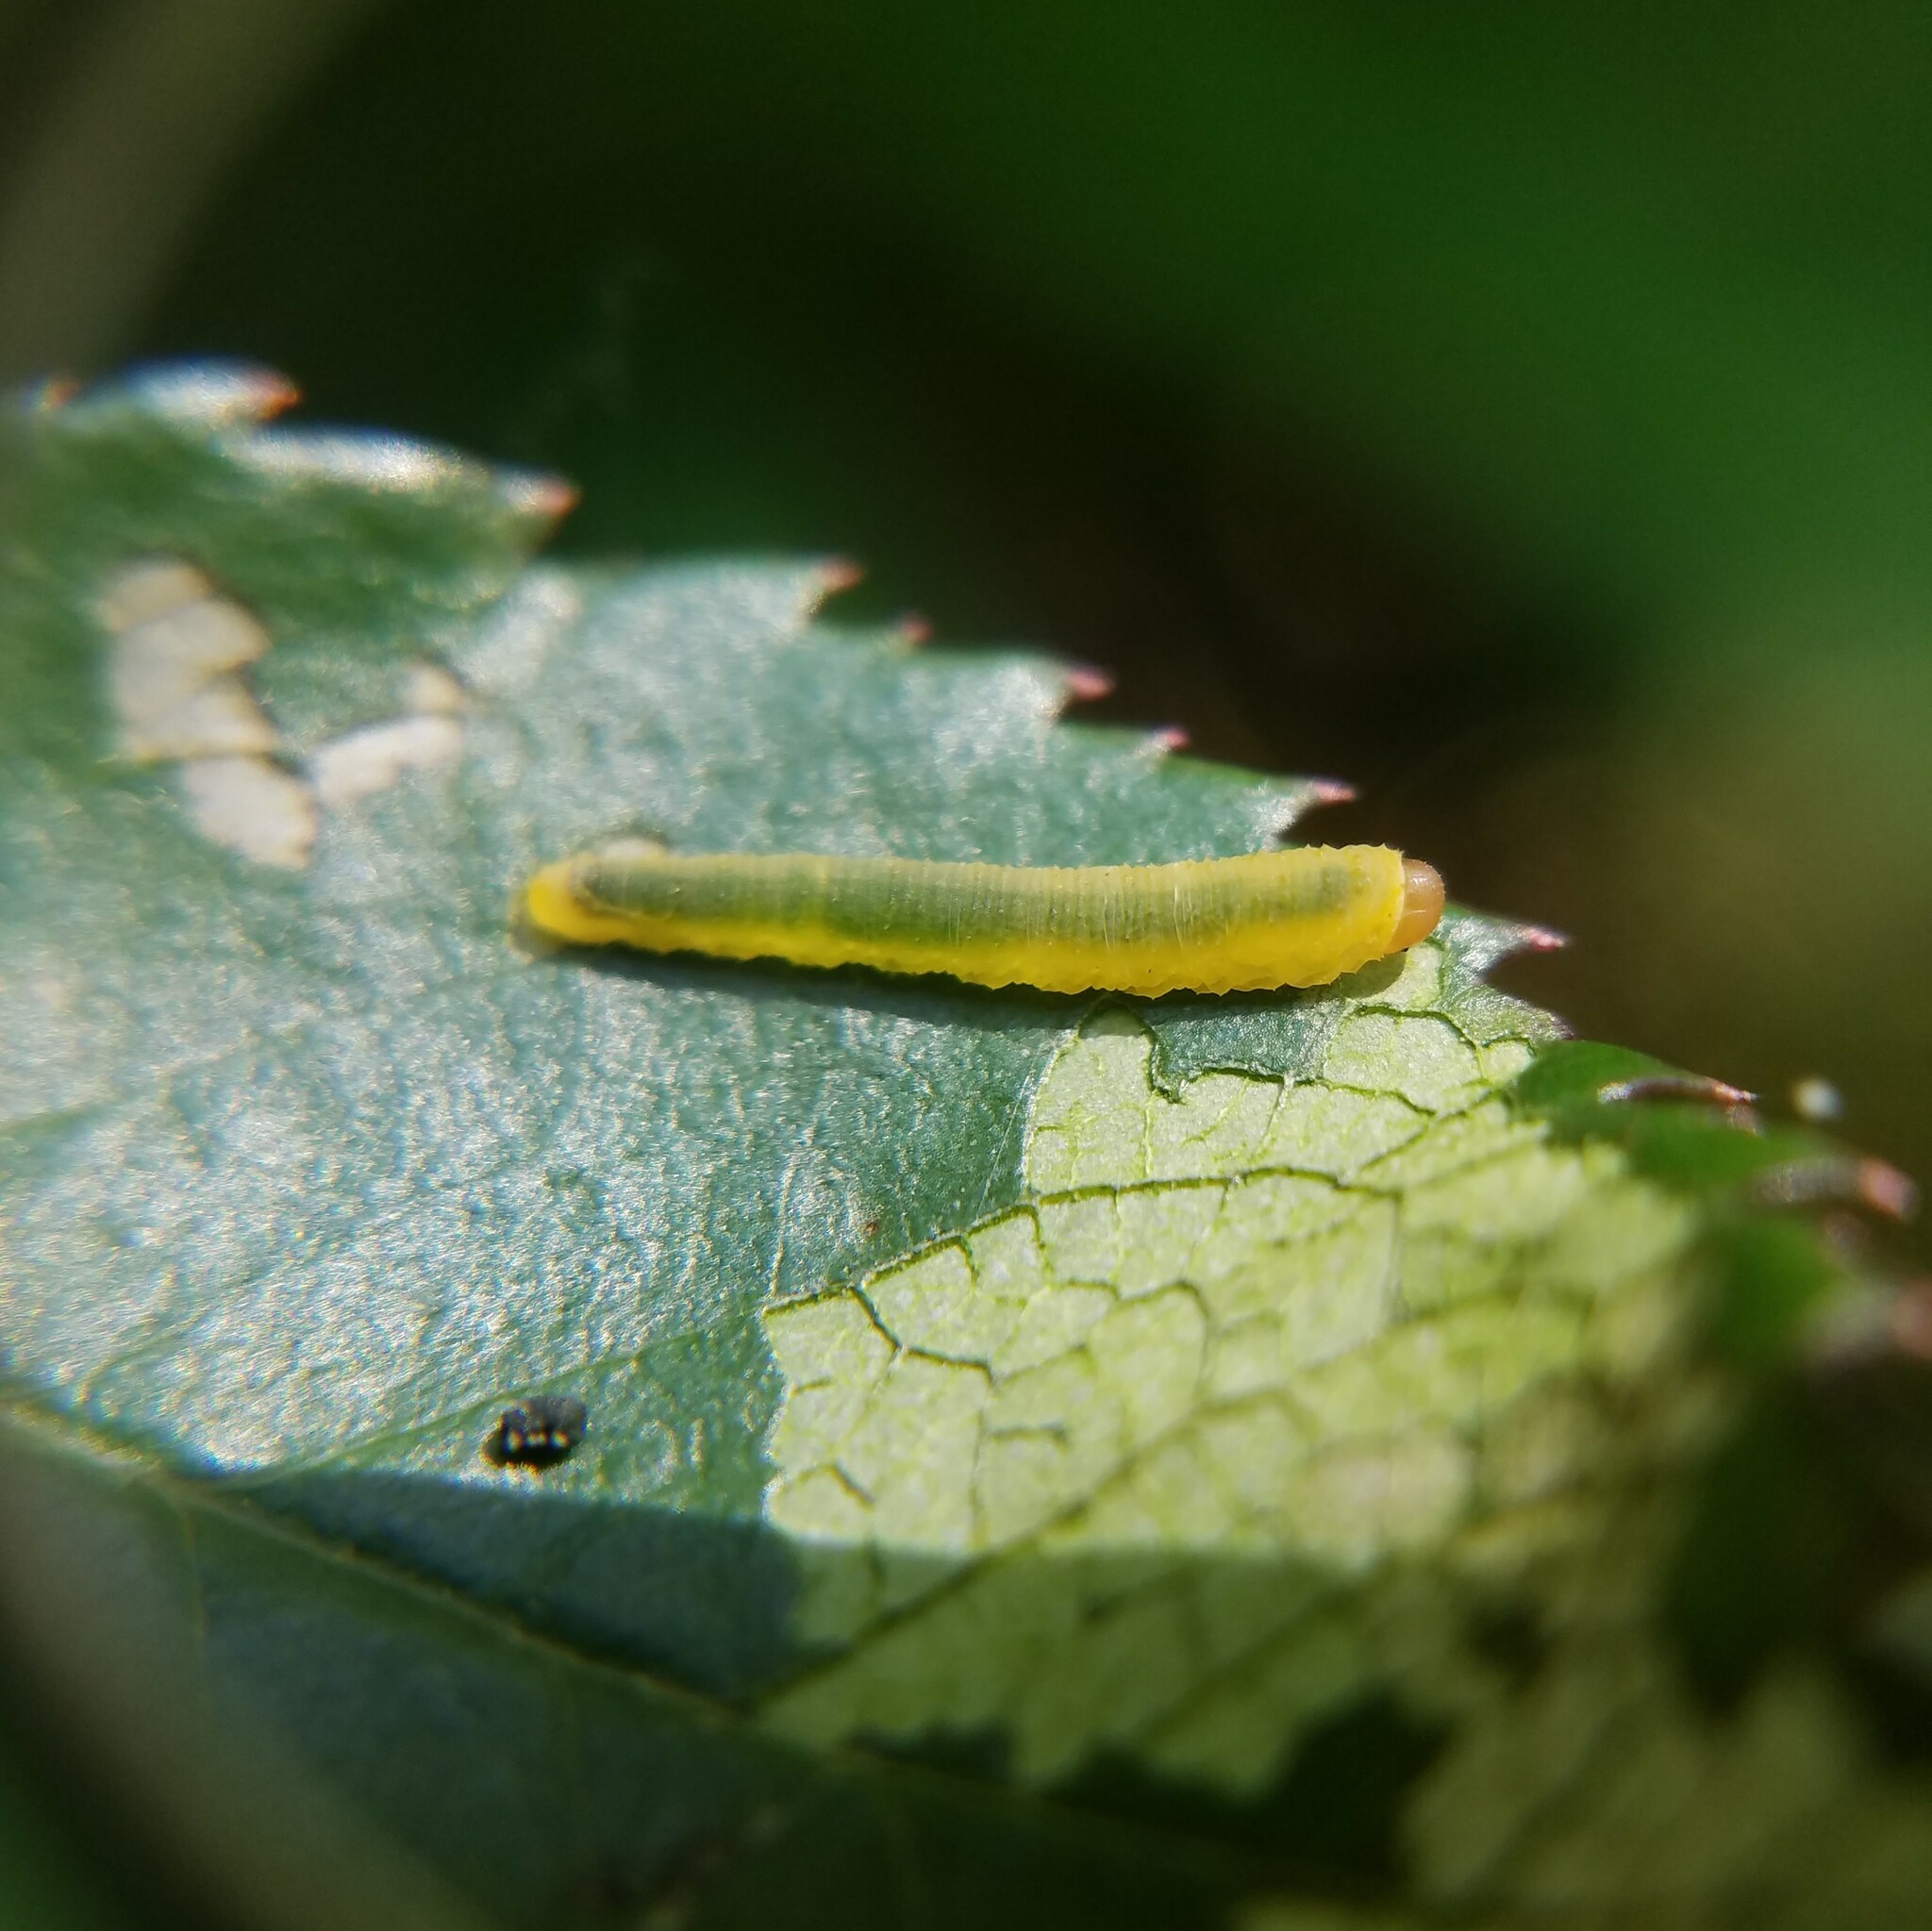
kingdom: Animalia
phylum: Arthropoda
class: Insecta
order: Hymenoptera
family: Tenthredinidae
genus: Endelomyia
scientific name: Endelomyia aethiops
